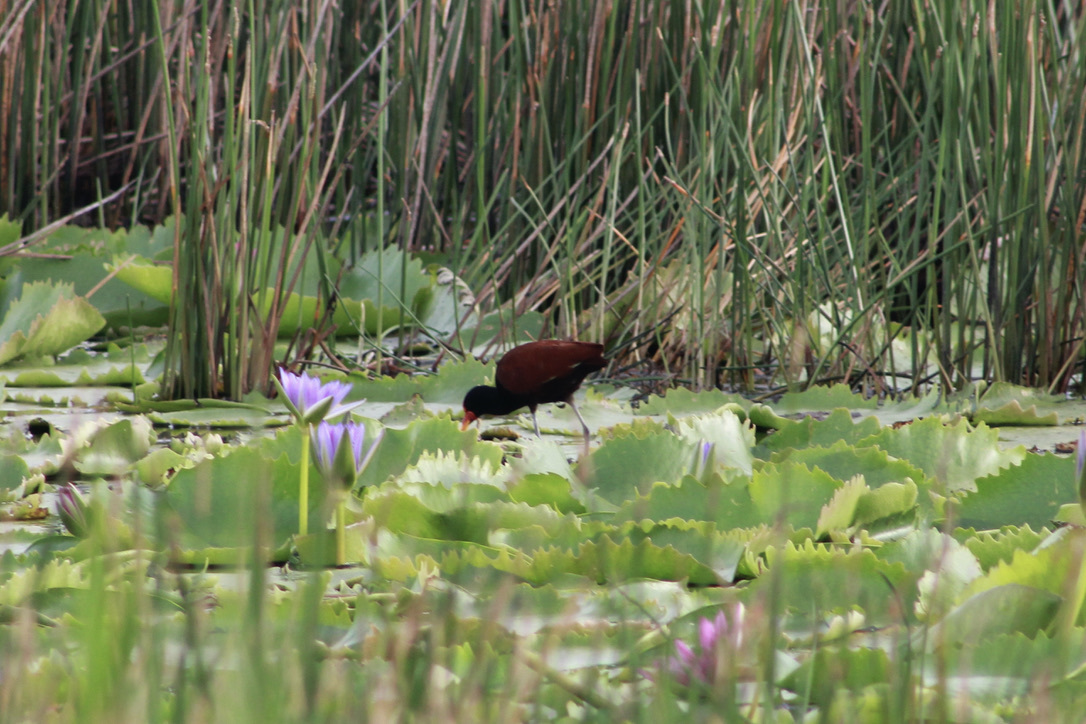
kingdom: Animalia
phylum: Chordata
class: Aves
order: Charadriiformes
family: Jacanidae
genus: Jacana
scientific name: Jacana jacana
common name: Wattled jacana
